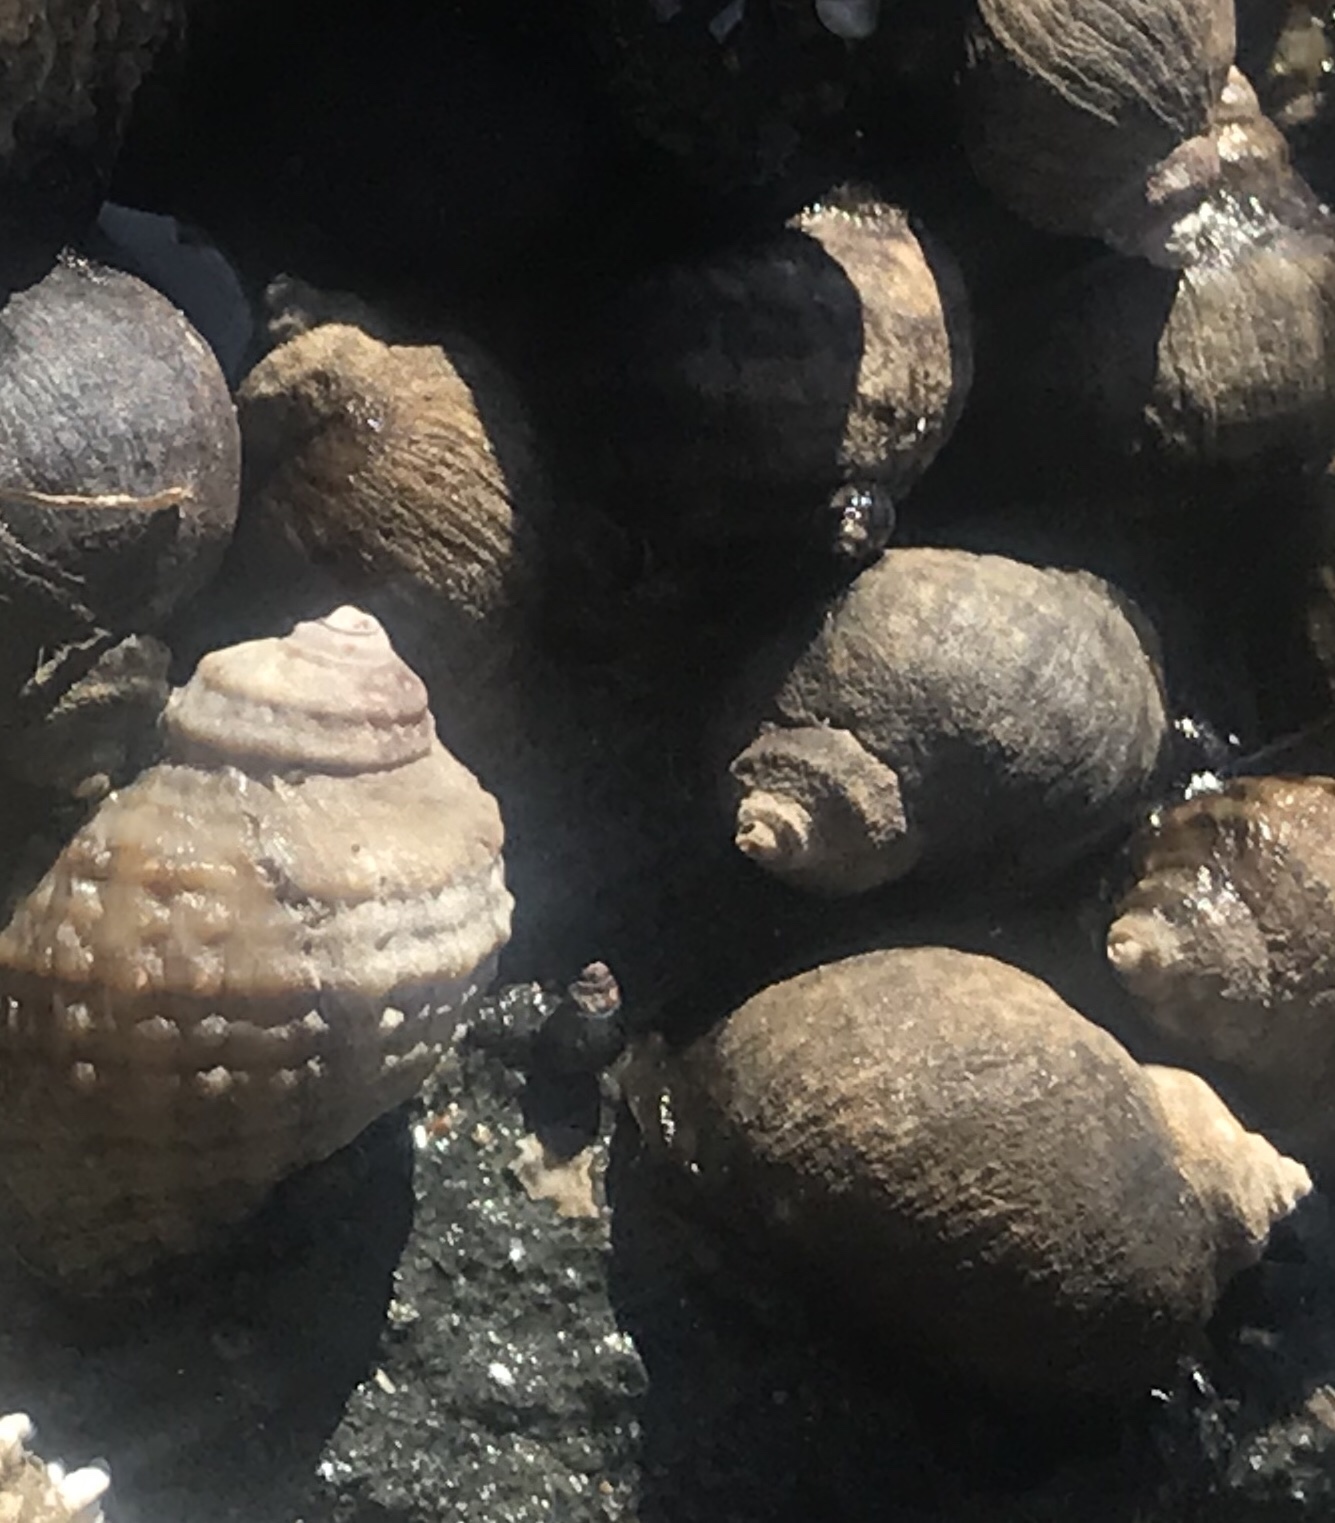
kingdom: Animalia
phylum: Mollusca
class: Gastropoda
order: Neogastropoda
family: Muricidae
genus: Nucella
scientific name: Nucella ostrina
